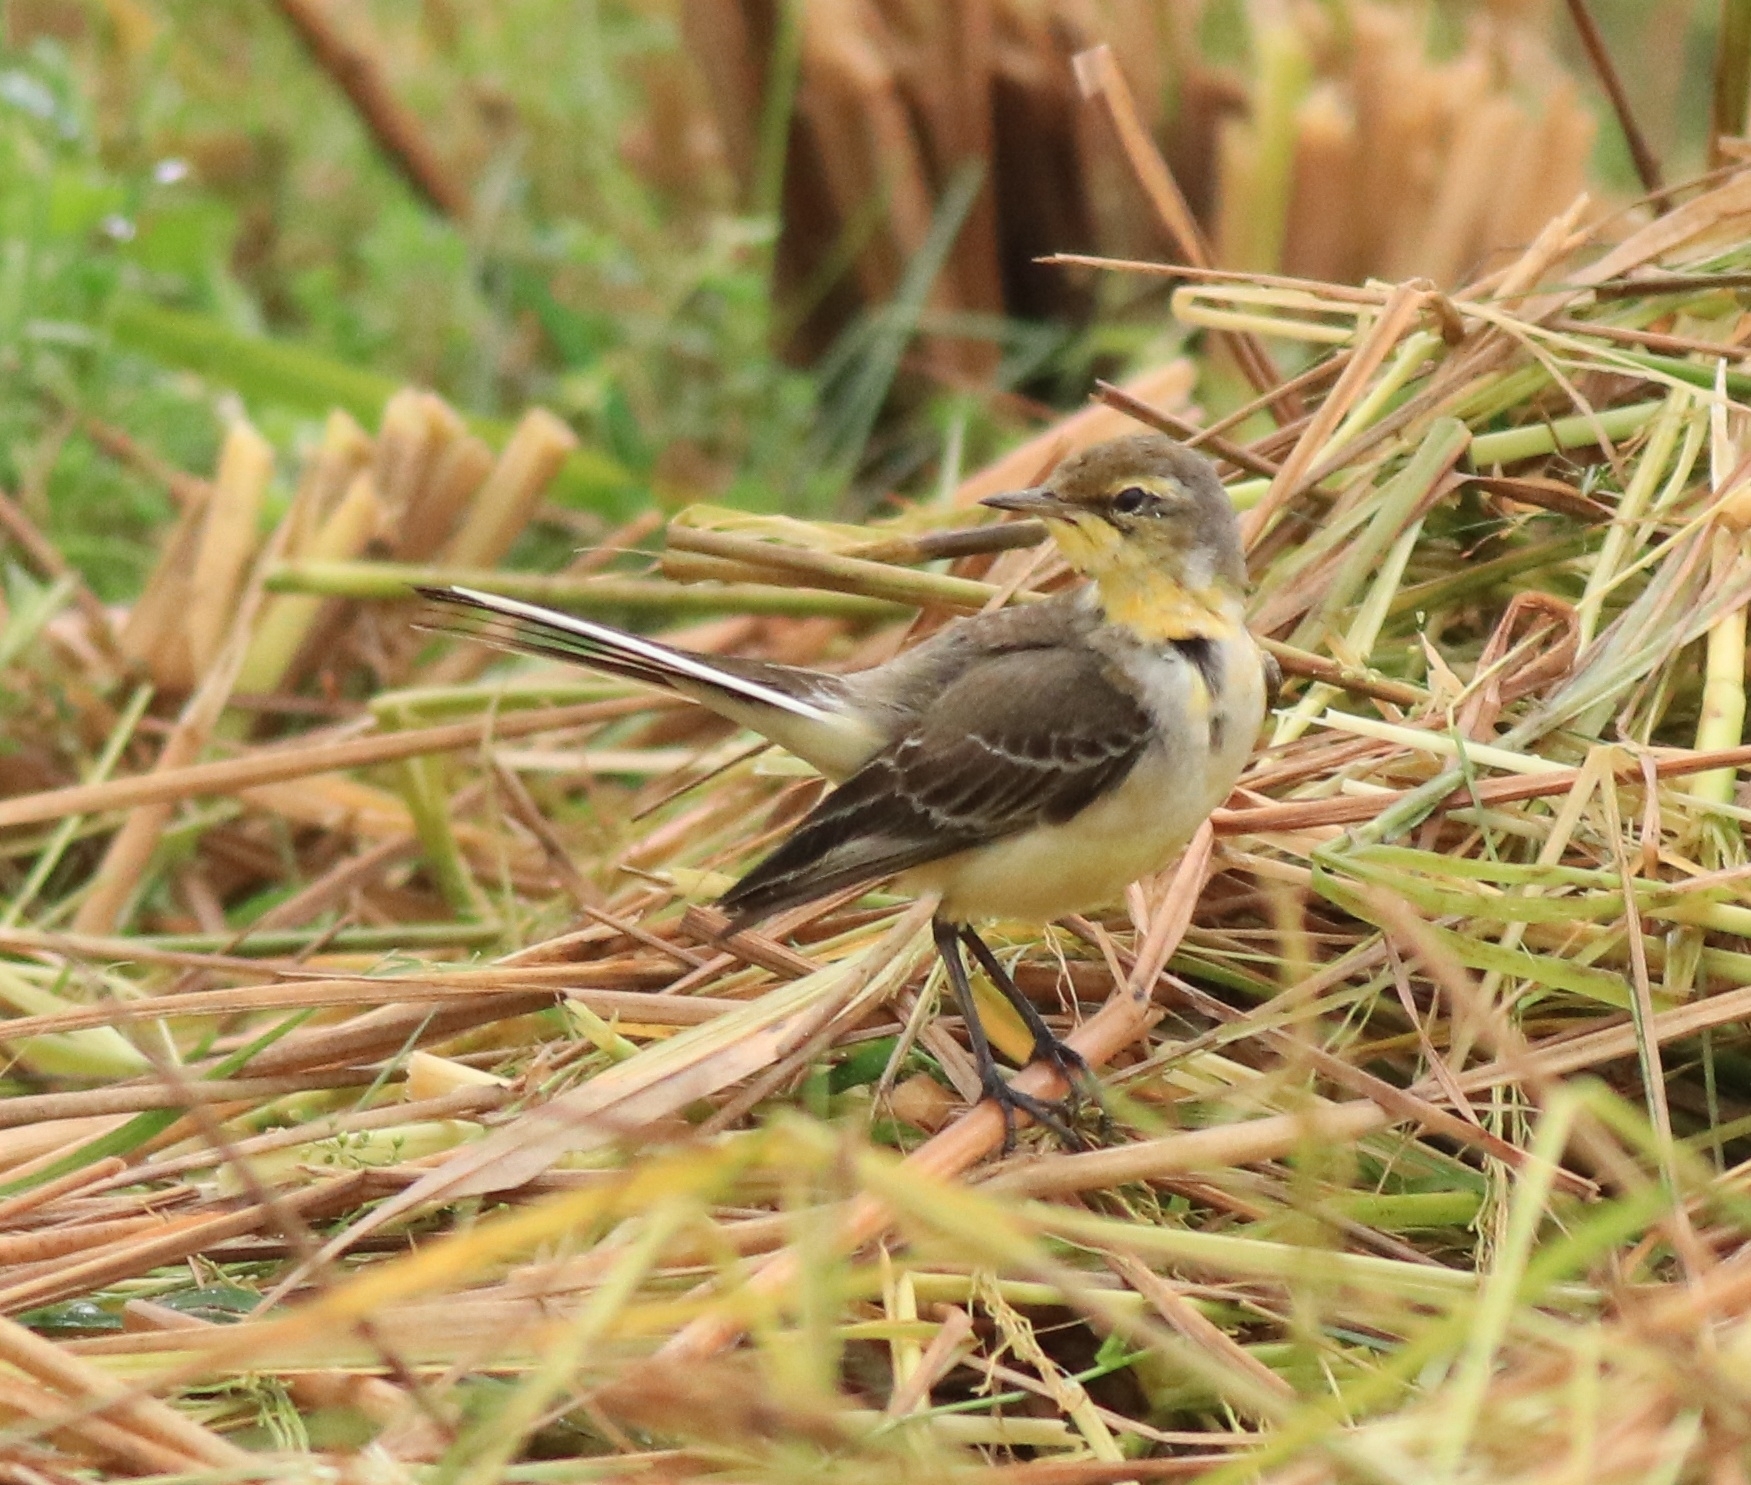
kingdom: Animalia
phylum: Chordata
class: Aves
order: Passeriformes
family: Motacillidae
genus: Motacilla
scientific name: Motacilla flava
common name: Western yellow wagtail
